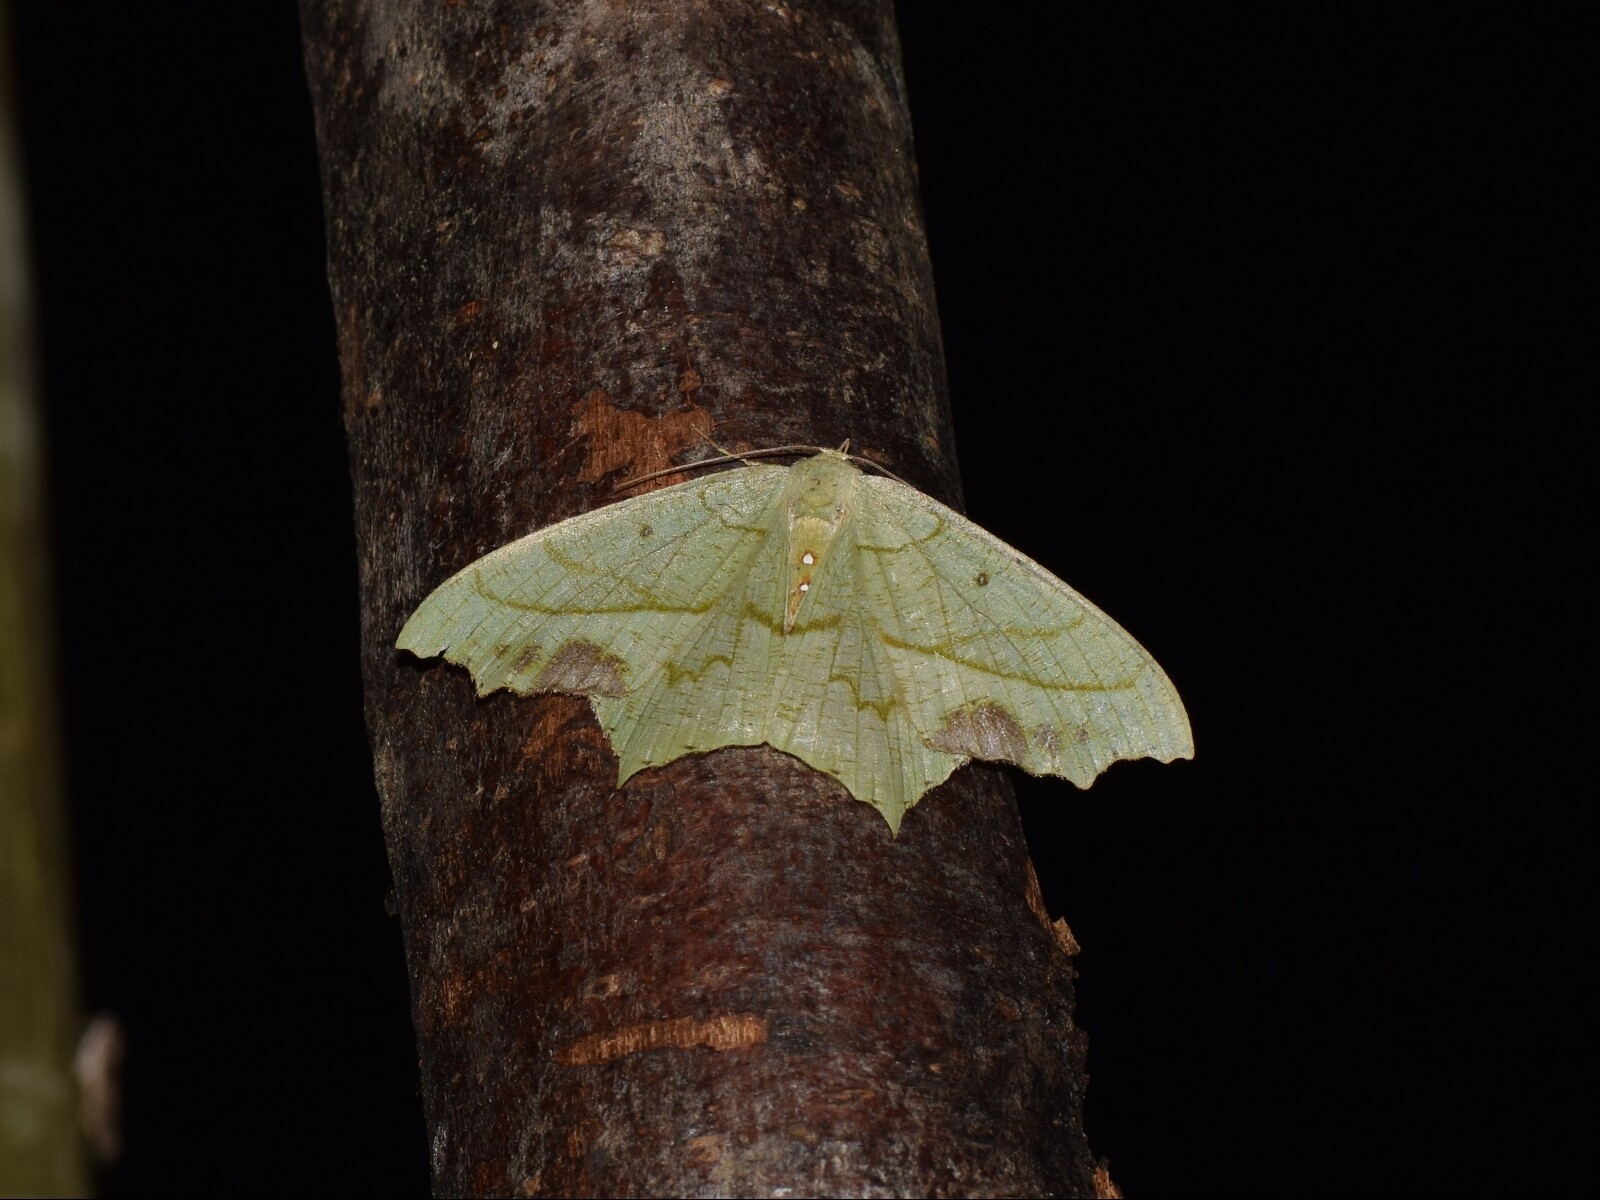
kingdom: Animalia
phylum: Arthropoda
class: Insecta
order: Lepidoptera
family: Geometridae
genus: Dooabia
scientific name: Dooabia viridata
